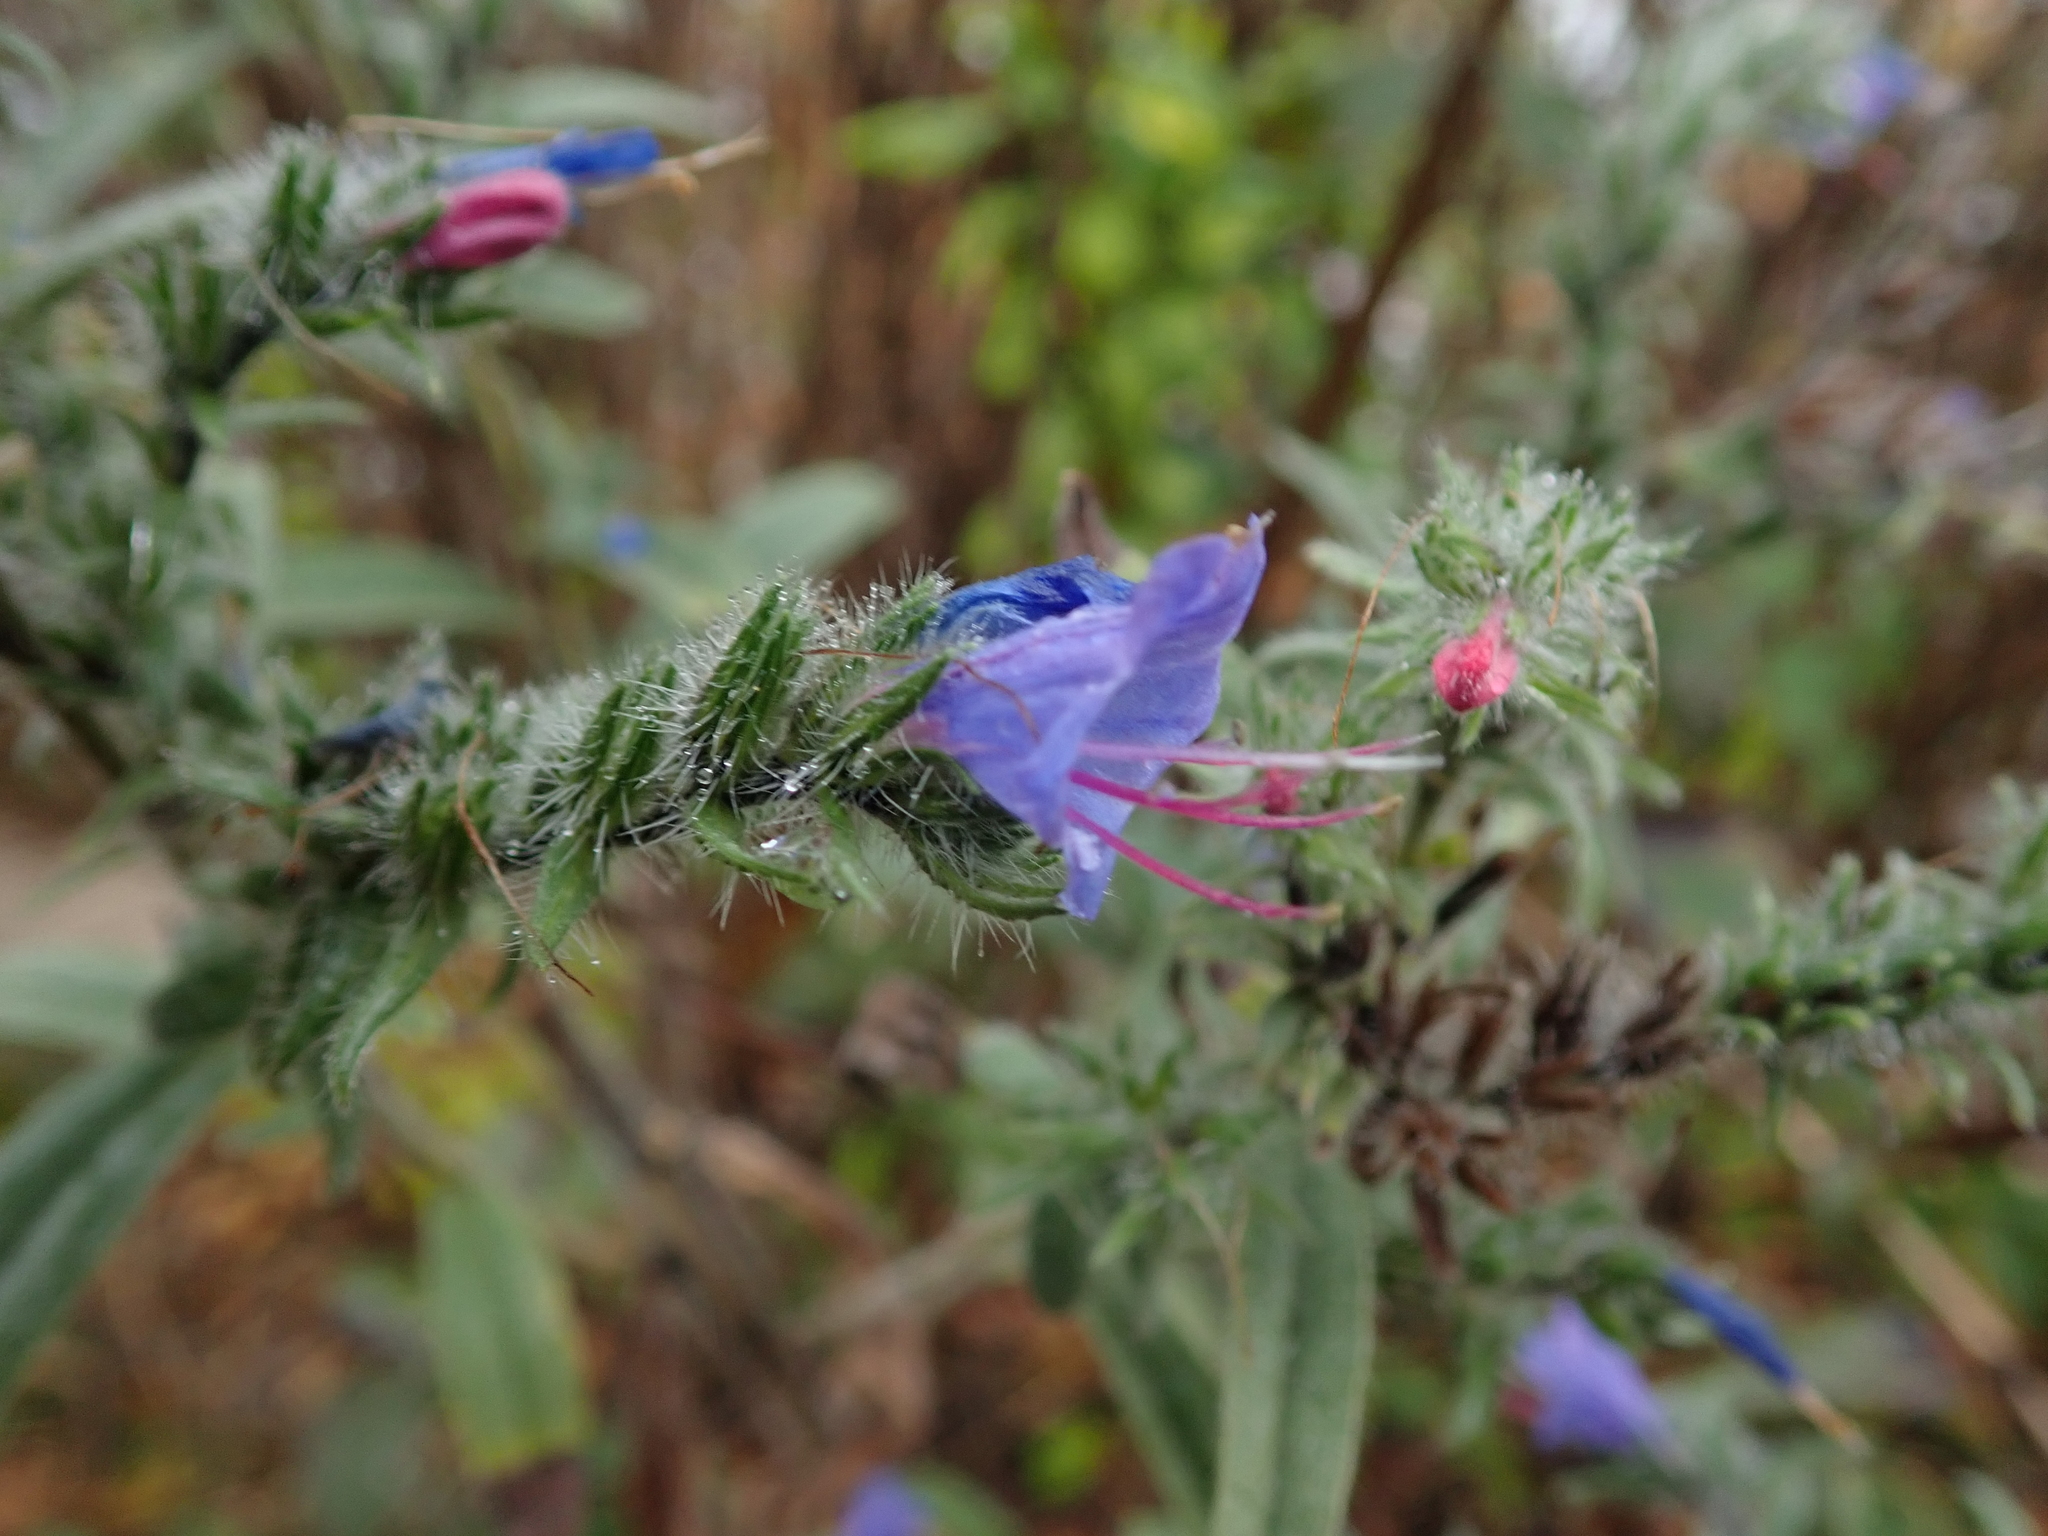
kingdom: Plantae
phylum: Tracheophyta
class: Magnoliopsida
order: Boraginales
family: Boraginaceae
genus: Echium
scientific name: Echium vulgare
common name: Common viper's bugloss
